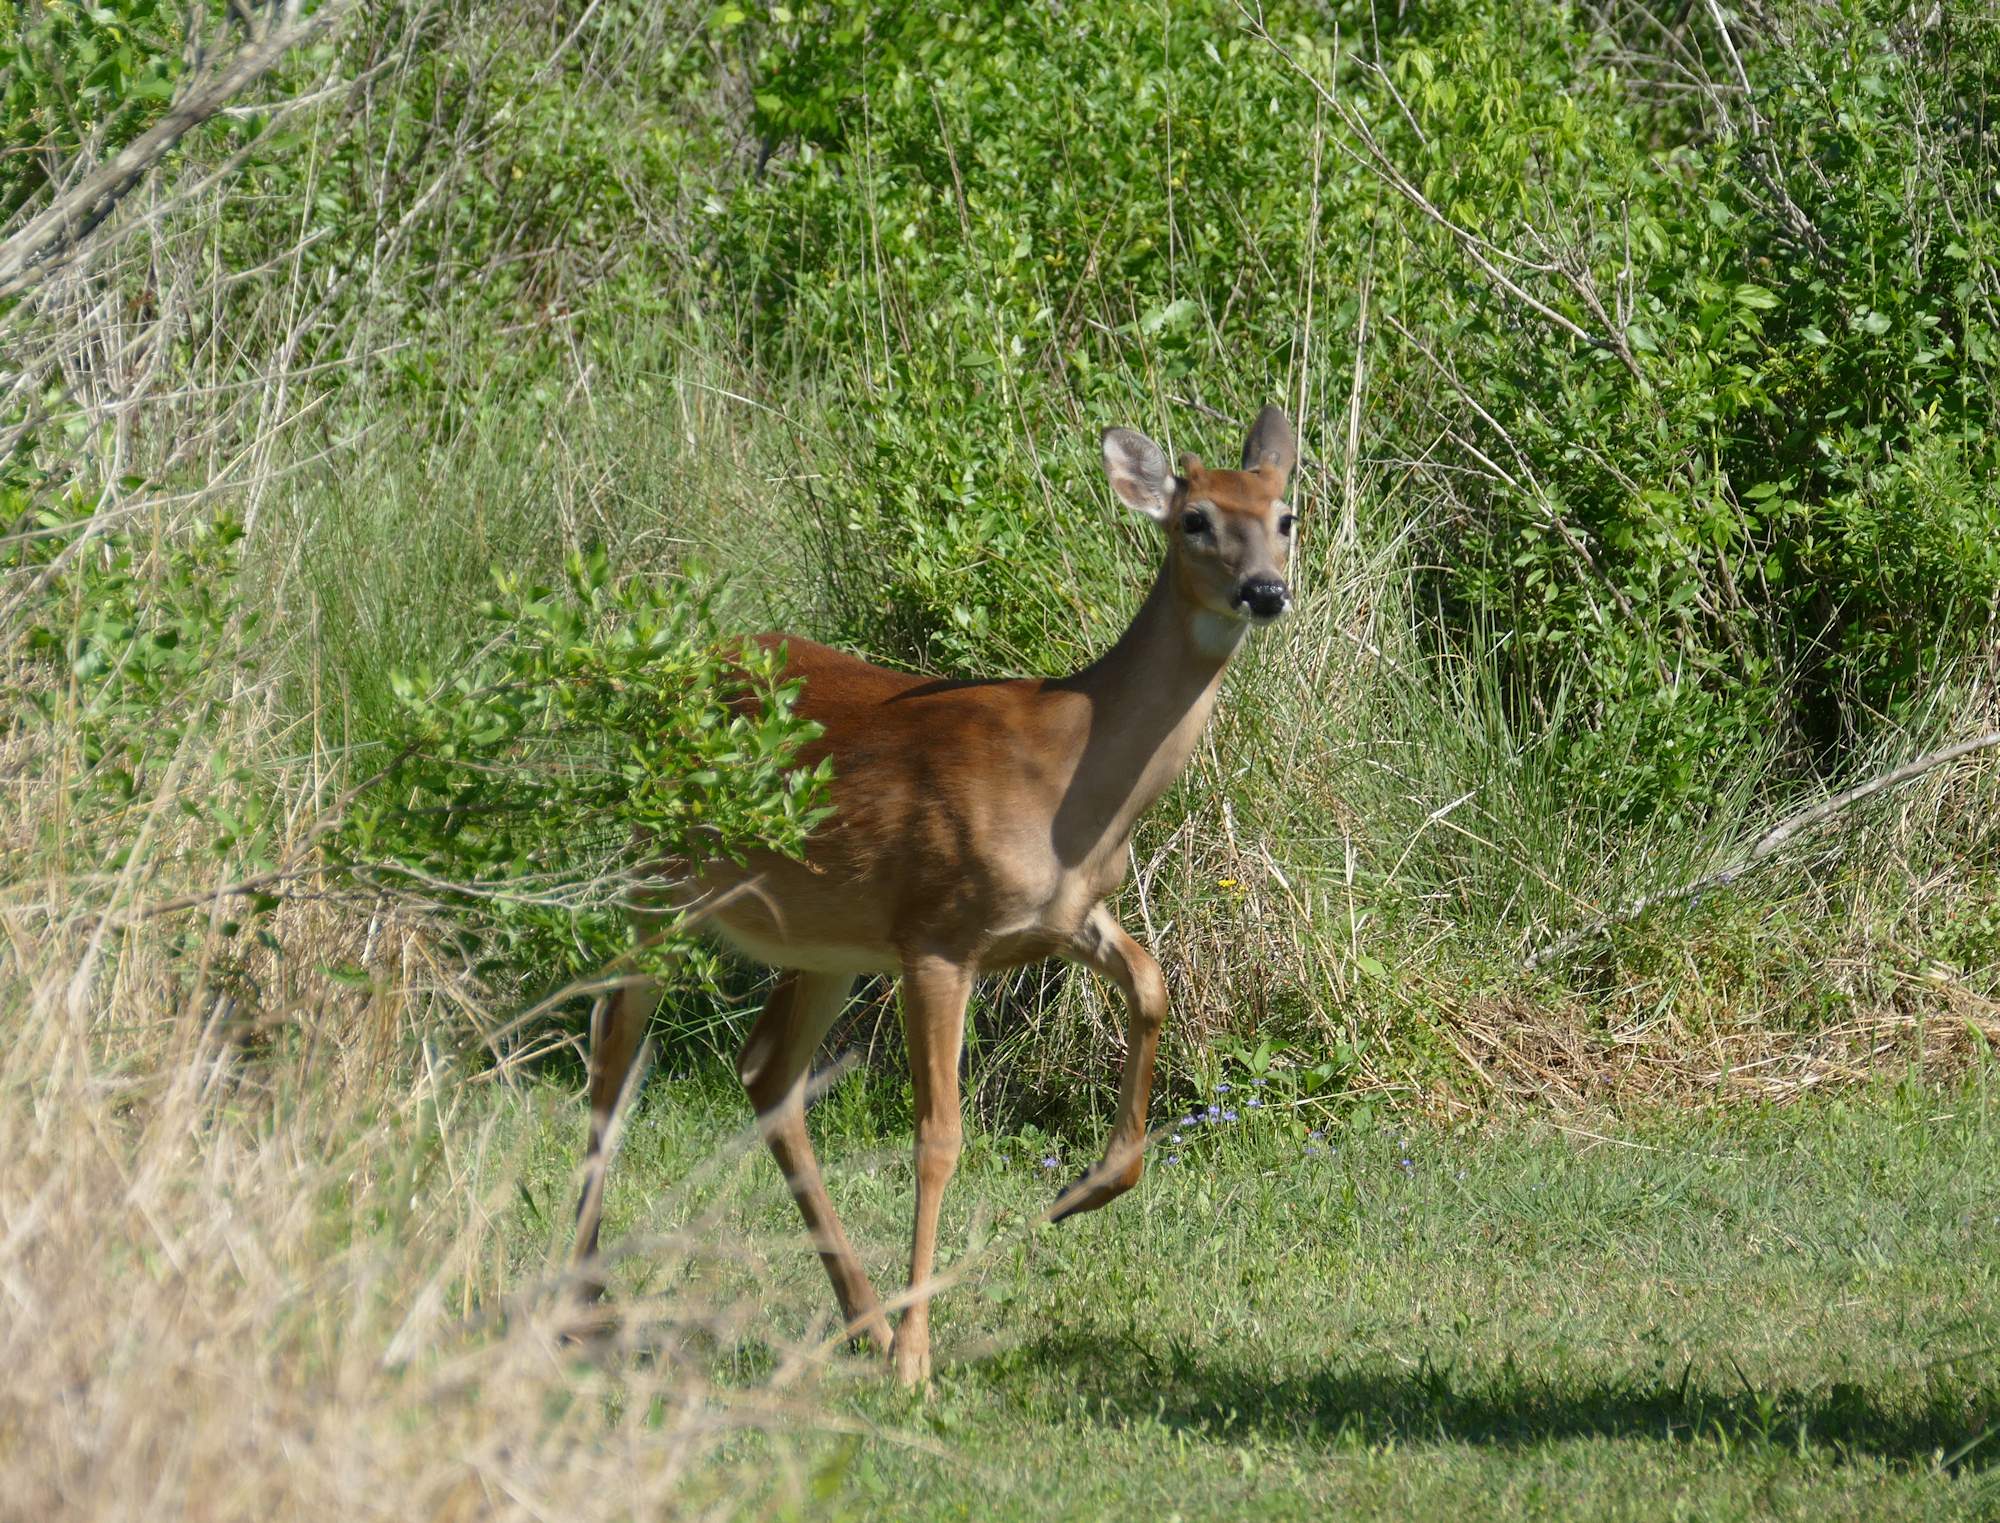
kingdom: Animalia
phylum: Chordata
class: Mammalia
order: Artiodactyla
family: Cervidae
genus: Odocoileus
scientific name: Odocoileus virginianus
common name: White-tailed deer
